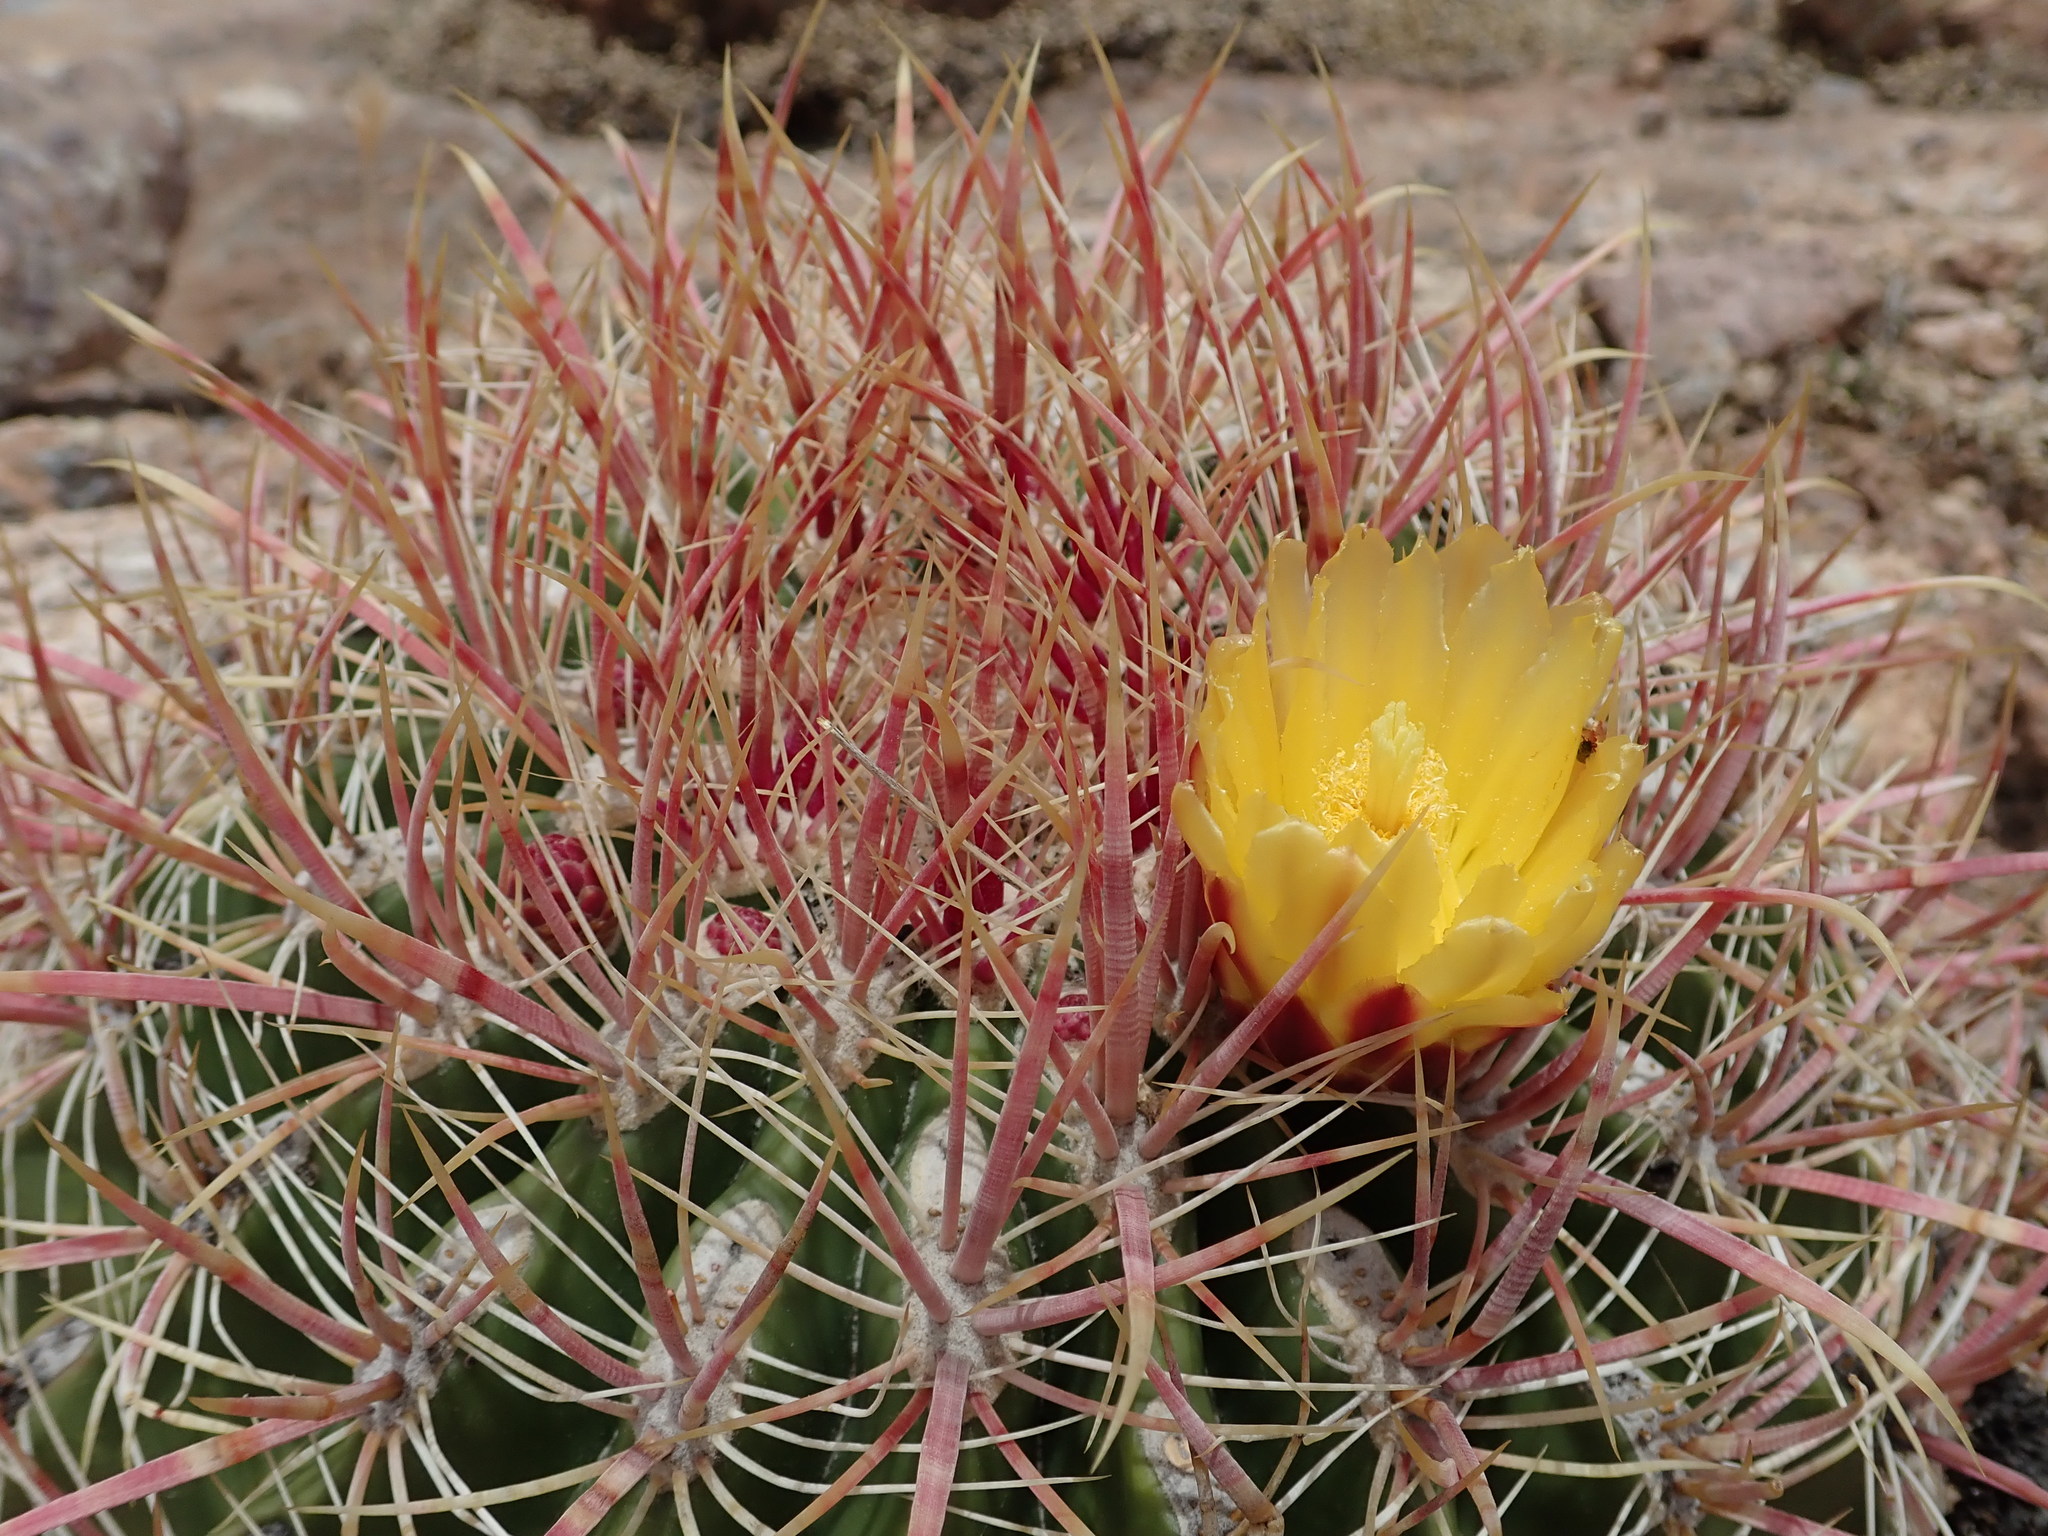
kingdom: Plantae
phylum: Tracheophyta
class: Magnoliopsida
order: Caryophyllales
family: Cactaceae
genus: Ferocactus
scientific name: Ferocactus cylindraceus
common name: California barrel cactus
